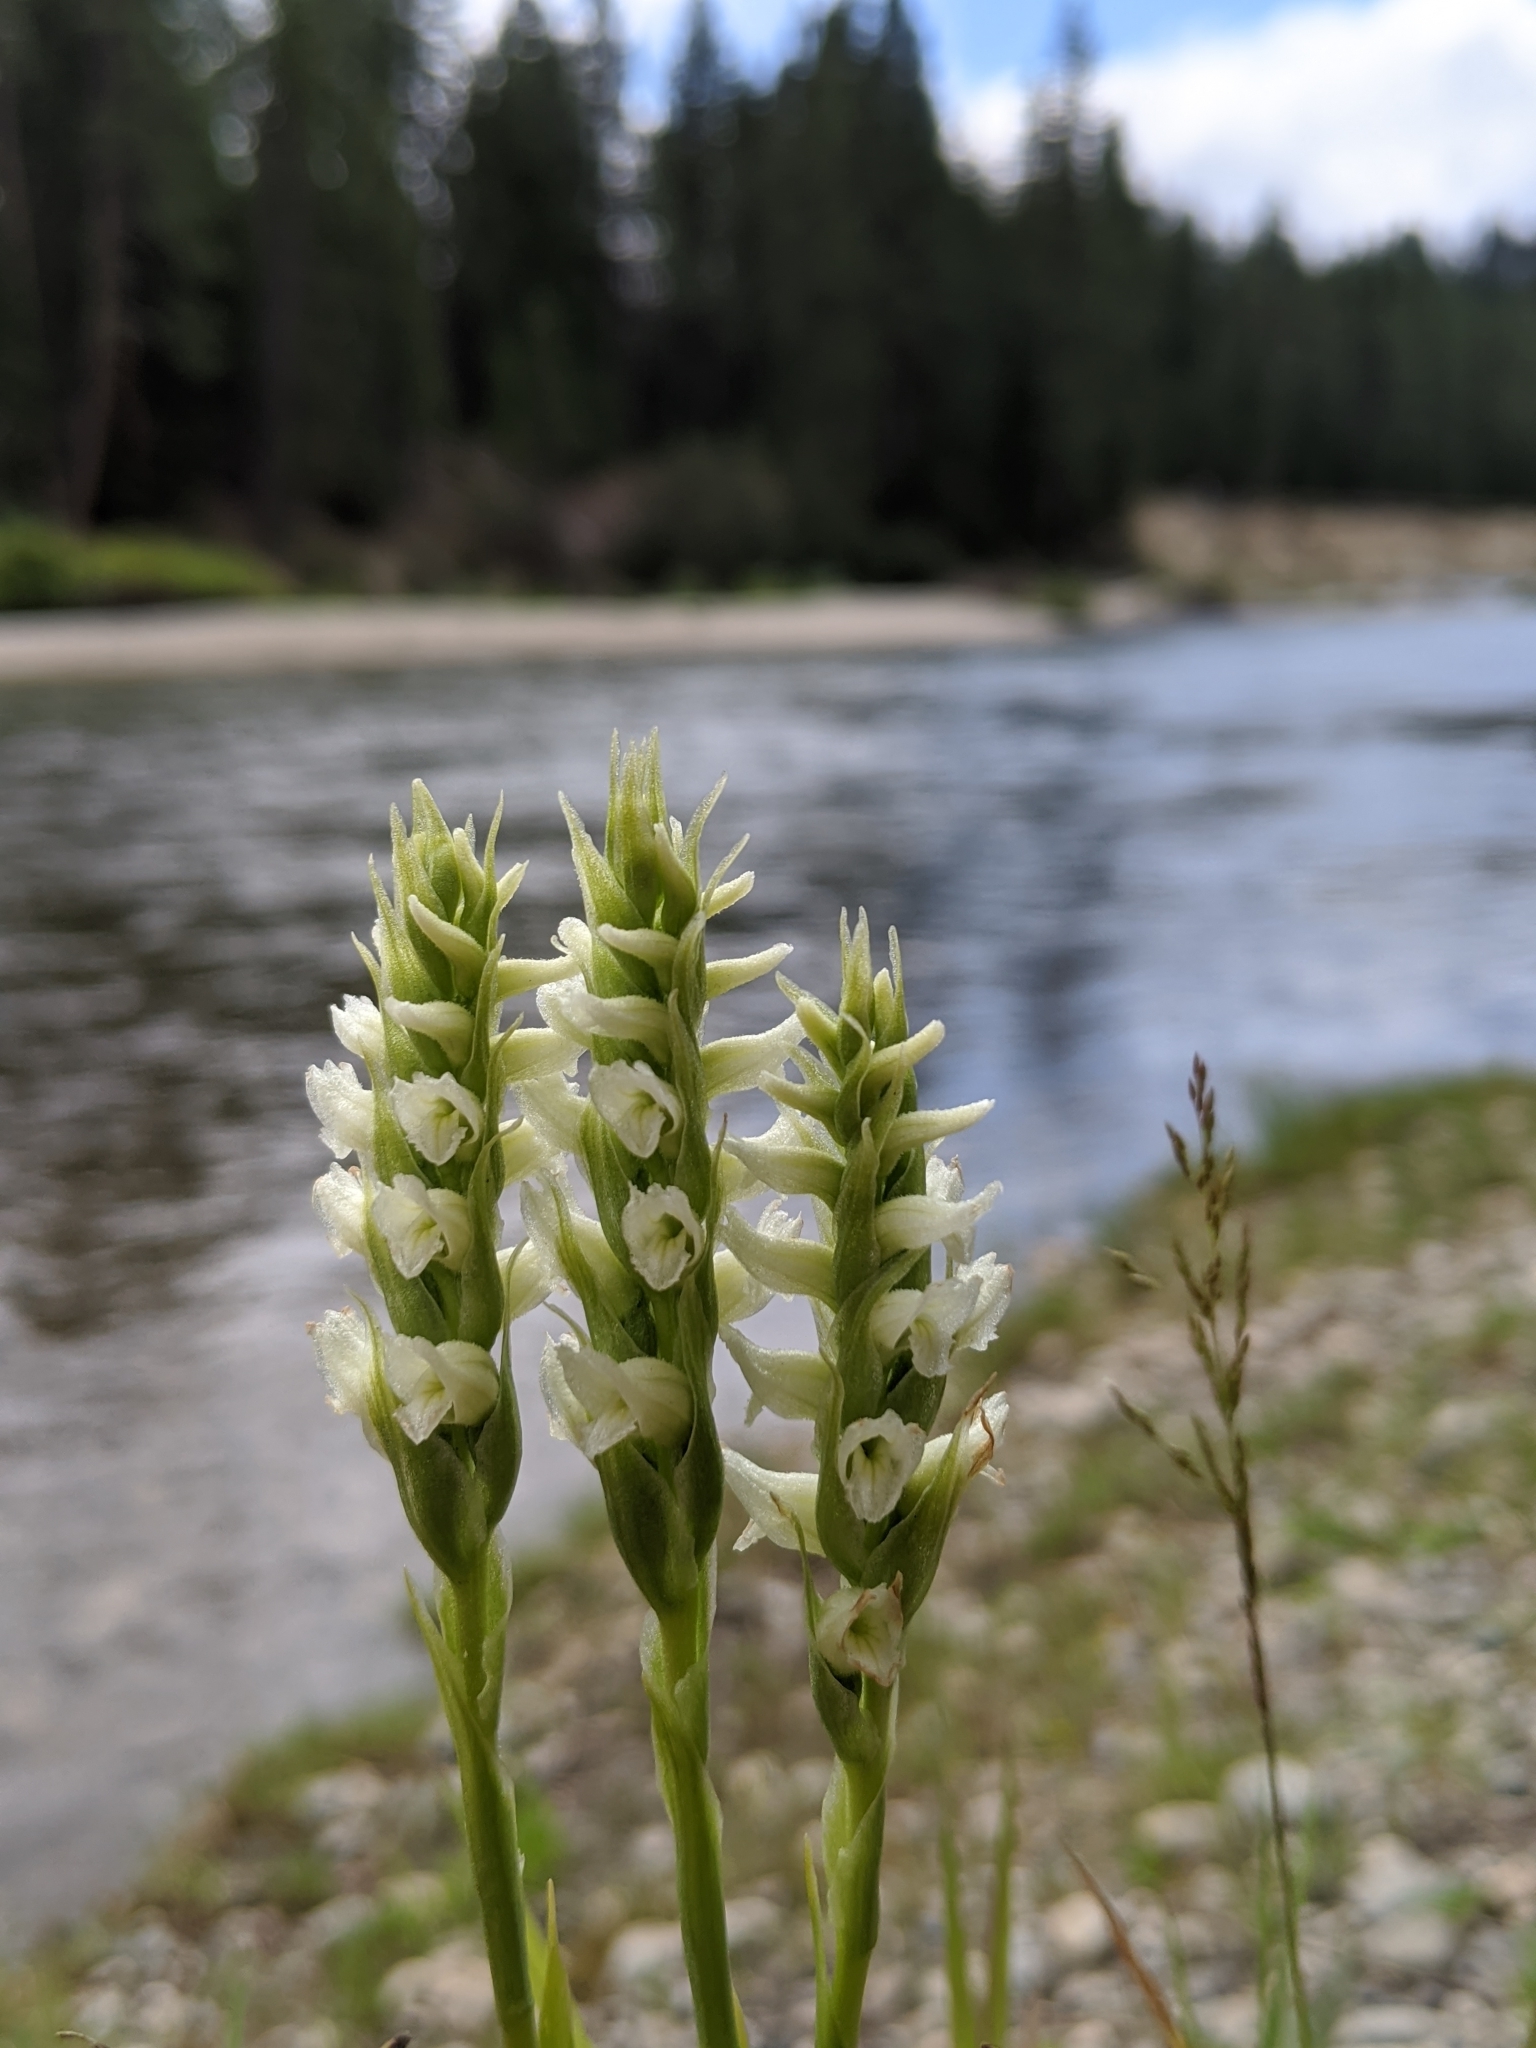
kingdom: Plantae
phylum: Tracheophyta
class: Liliopsida
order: Asparagales
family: Orchidaceae
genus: Spiranthes
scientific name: Spiranthes romanzoffiana
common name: Irish lady's-tresses
